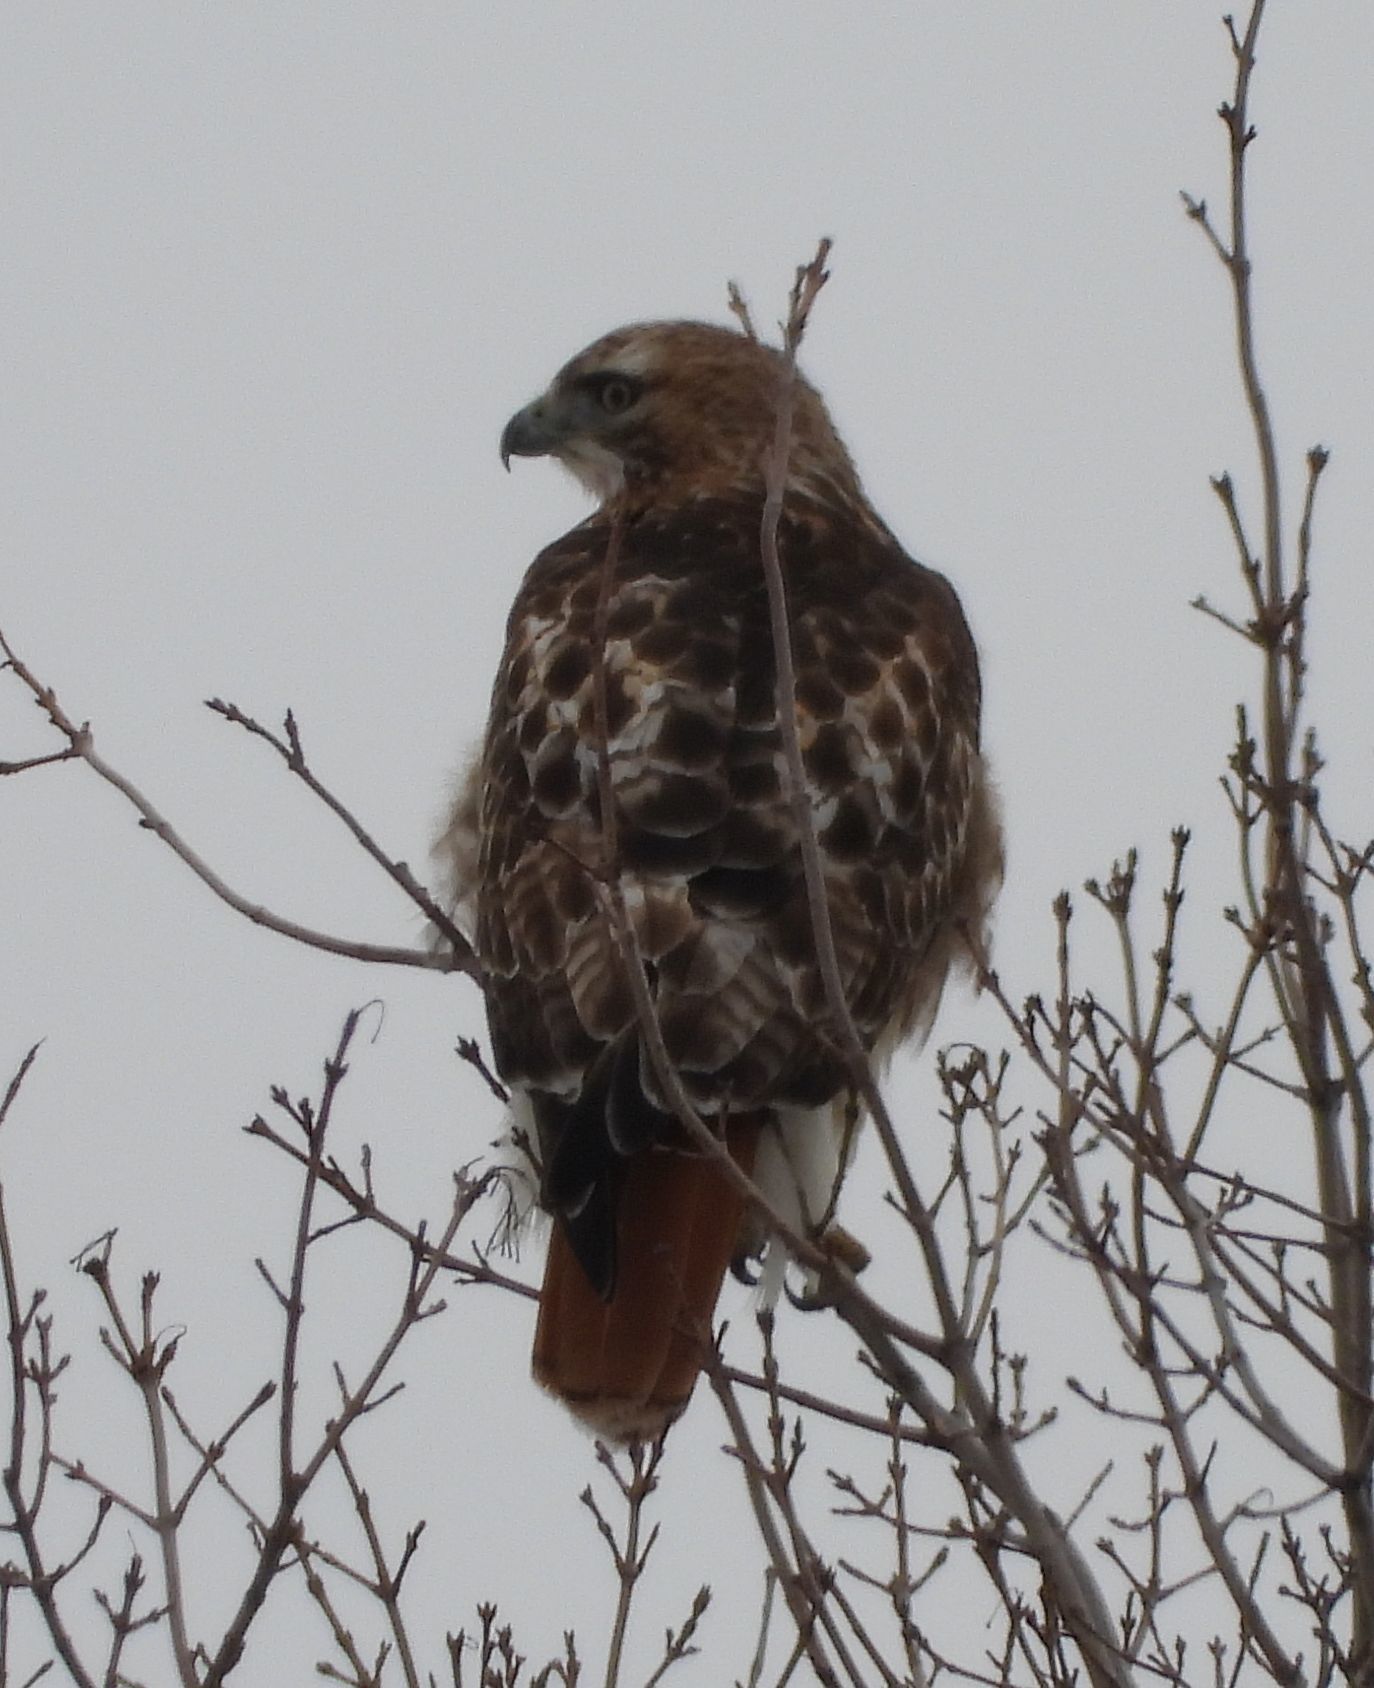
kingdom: Animalia
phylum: Chordata
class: Aves
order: Accipitriformes
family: Accipitridae
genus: Buteo
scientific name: Buteo jamaicensis
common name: Red-tailed hawk
